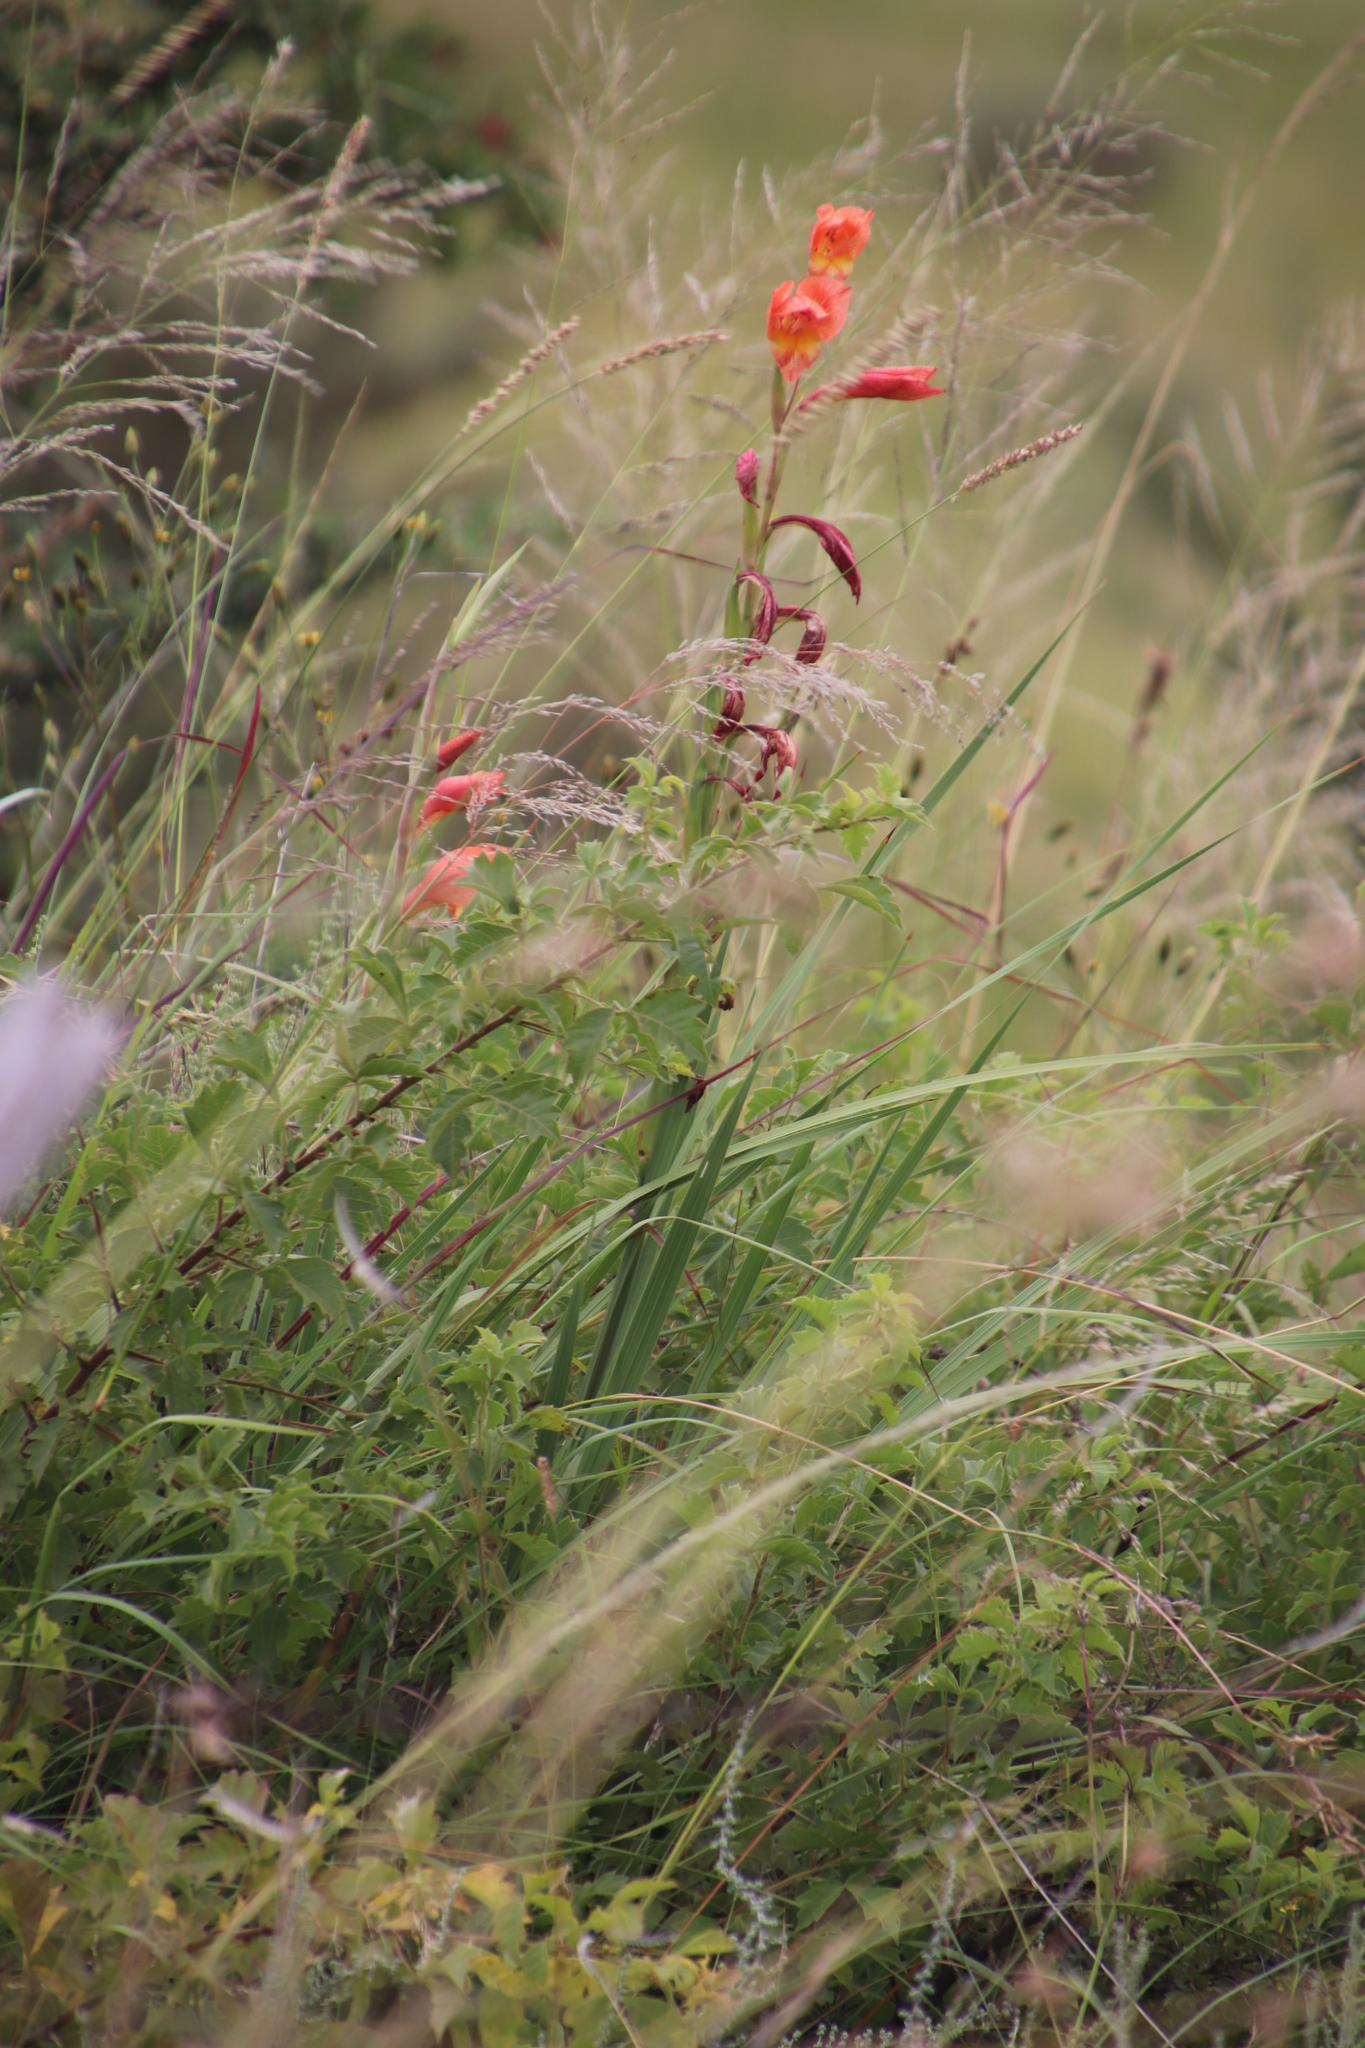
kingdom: Plantae
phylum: Tracheophyta
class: Liliopsida
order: Asparagales
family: Iridaceae
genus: Gladiolus
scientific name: Gladiolus dalenii
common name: Cornflag
